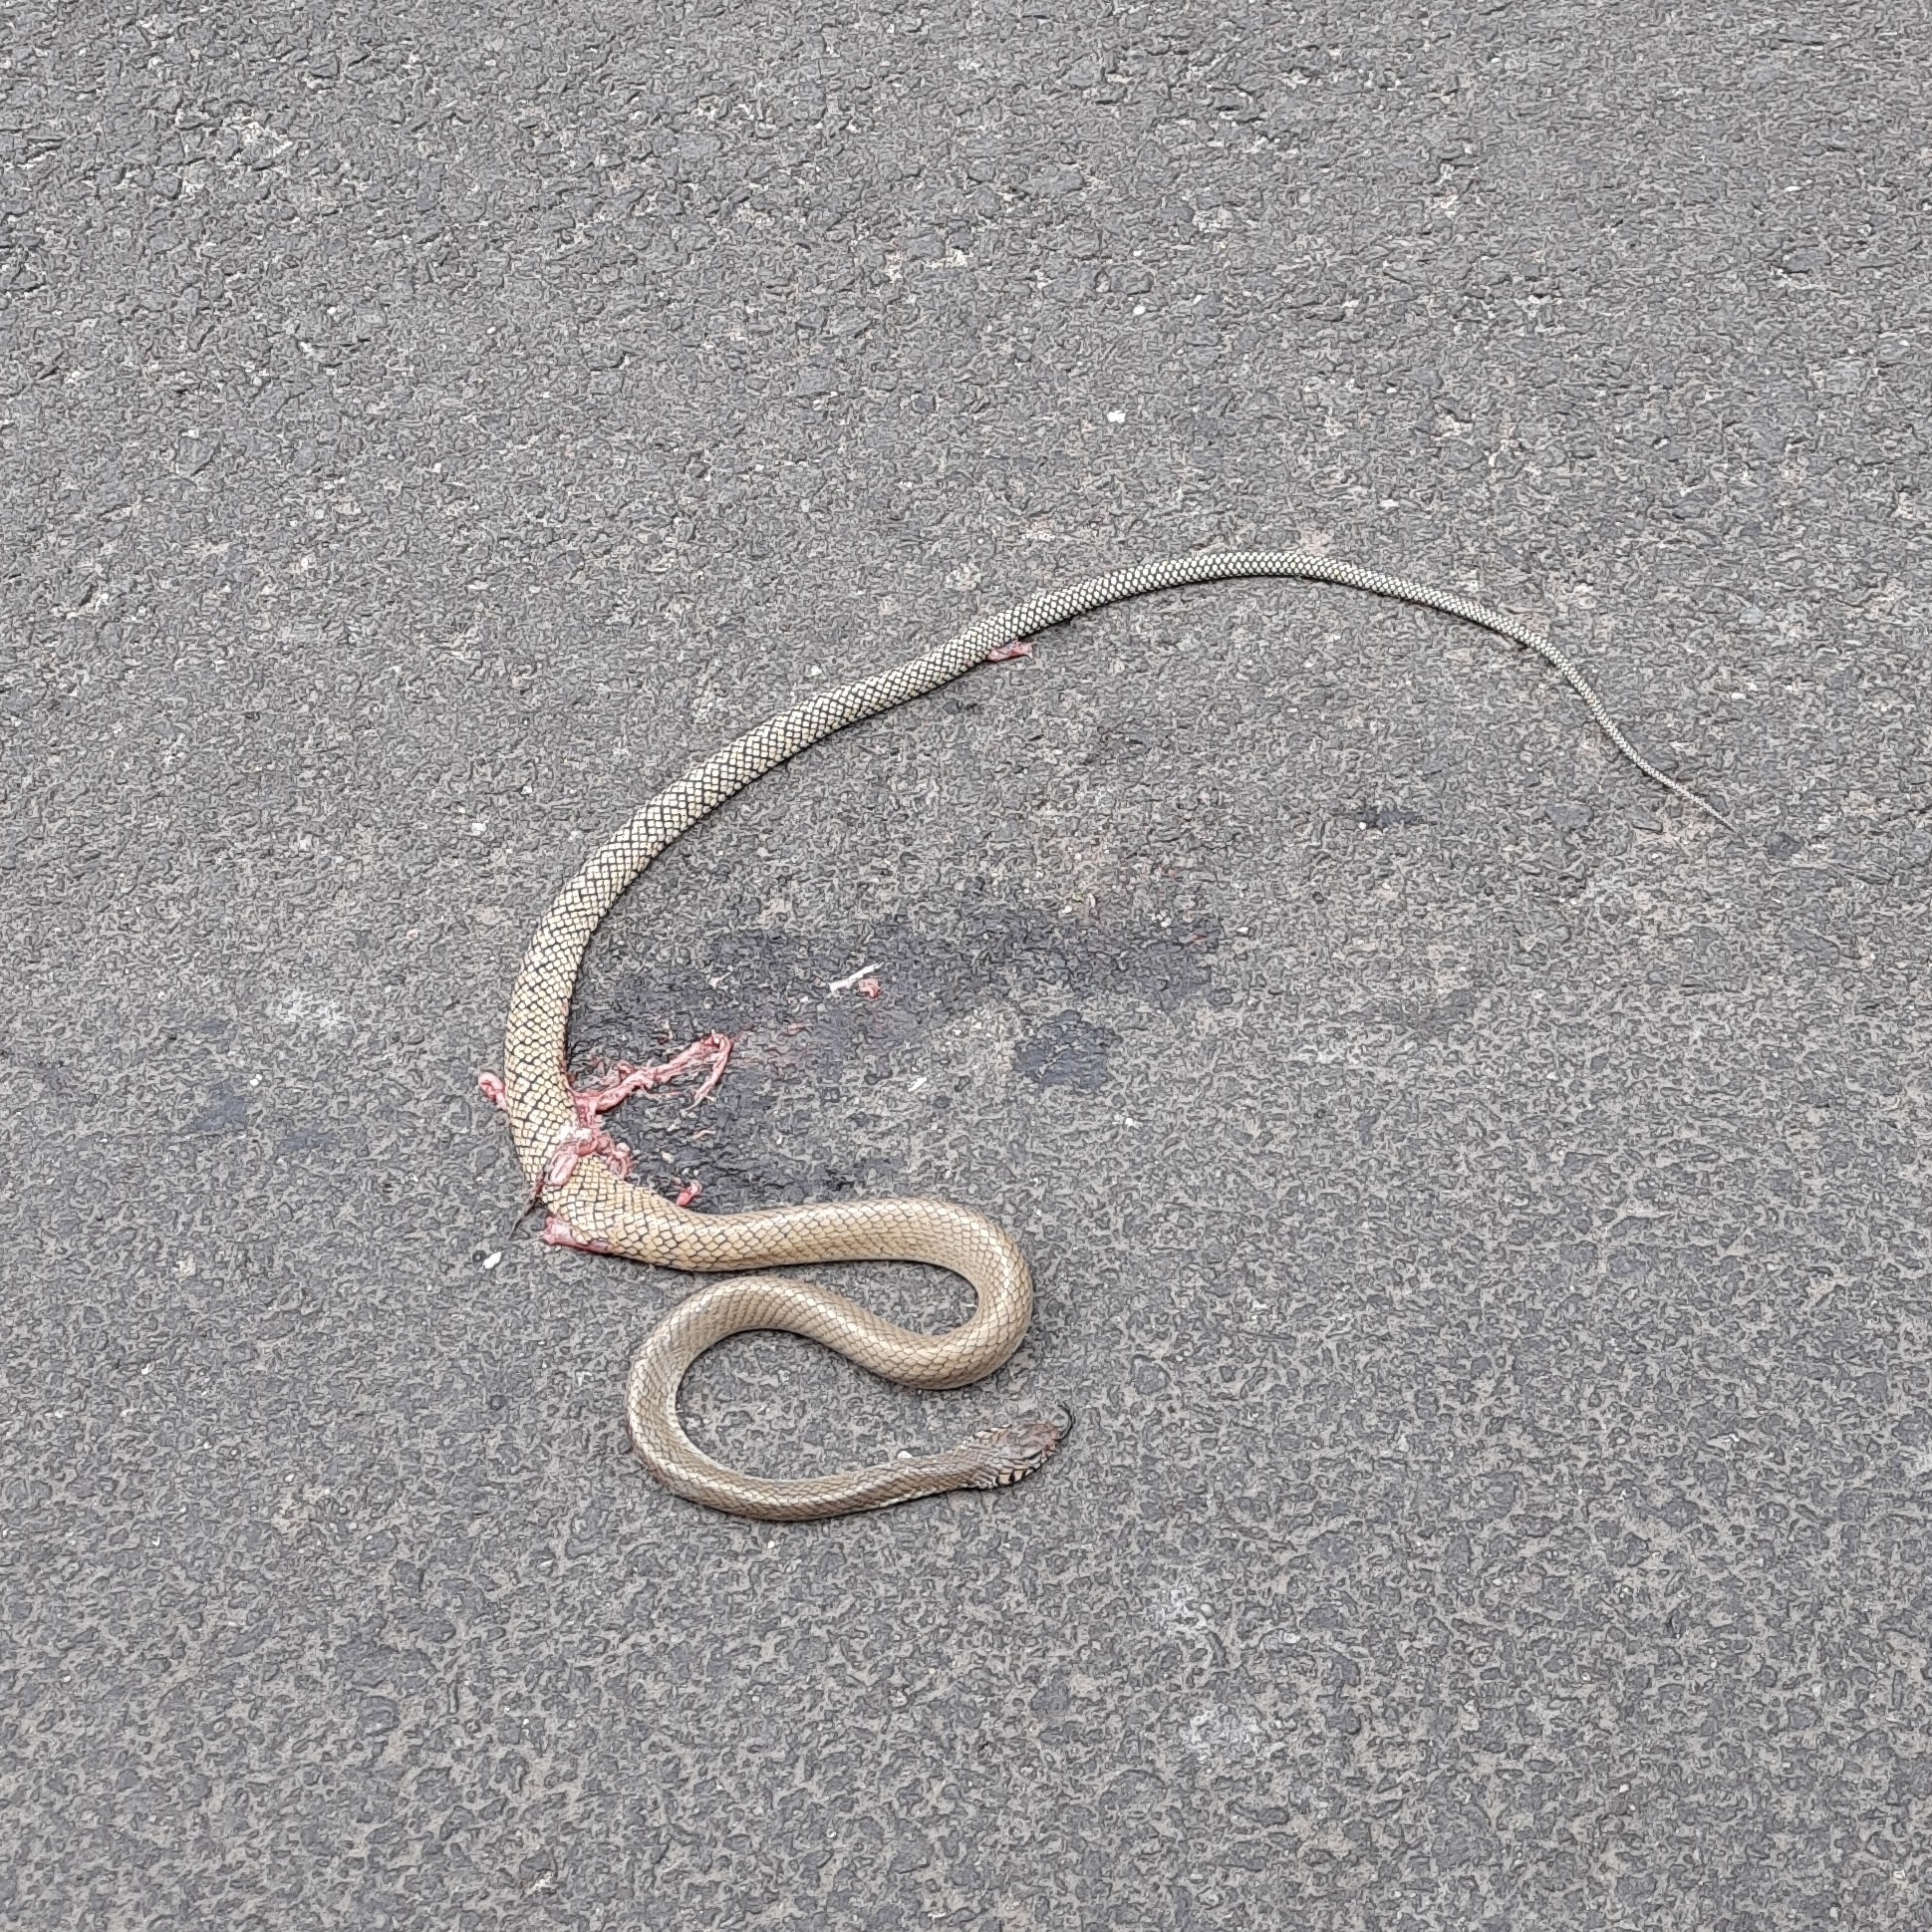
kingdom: Animalia
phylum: Chordata
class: Squamata
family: Colubridae
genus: Ptyas
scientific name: Ptyas mucosa
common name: Oriental ratsnake
